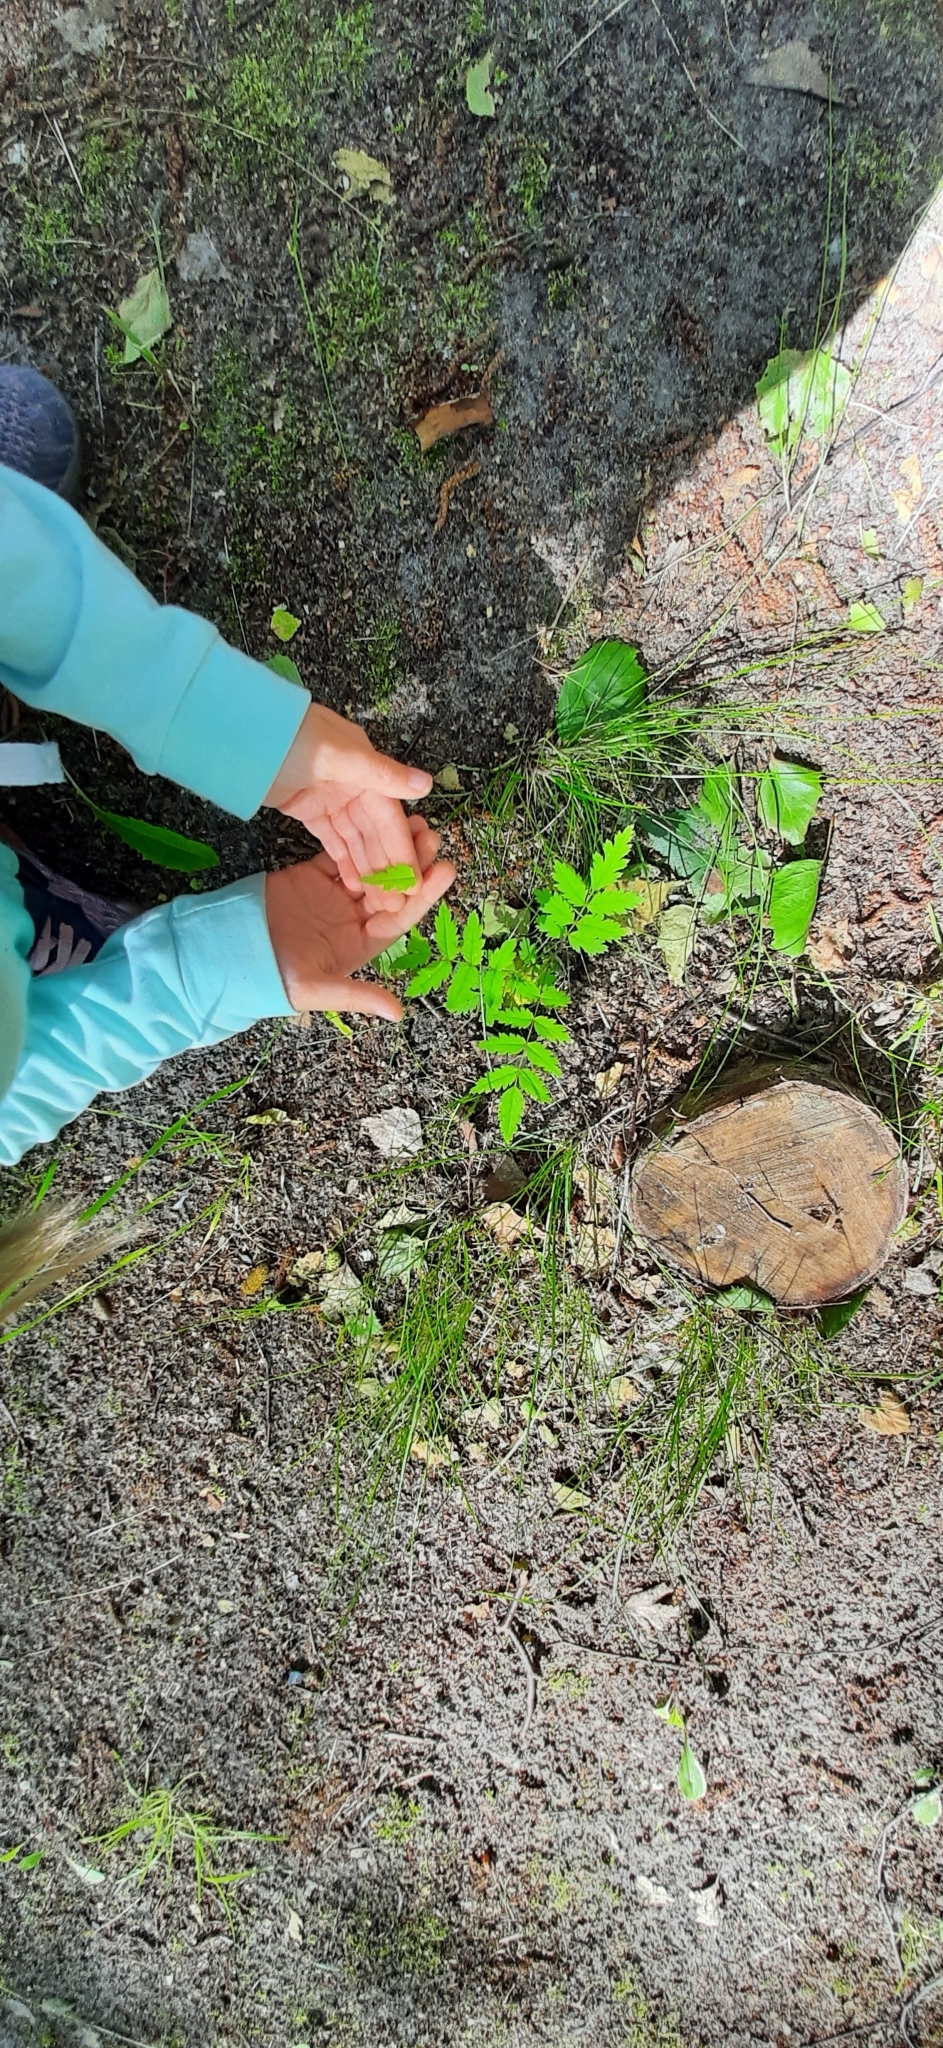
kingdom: Plantae
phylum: Tracheophyta
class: Magnoliopsida
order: Rosales
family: Rosaceae
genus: Sorbus
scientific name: Sorbus aucuparia
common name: Rowan
